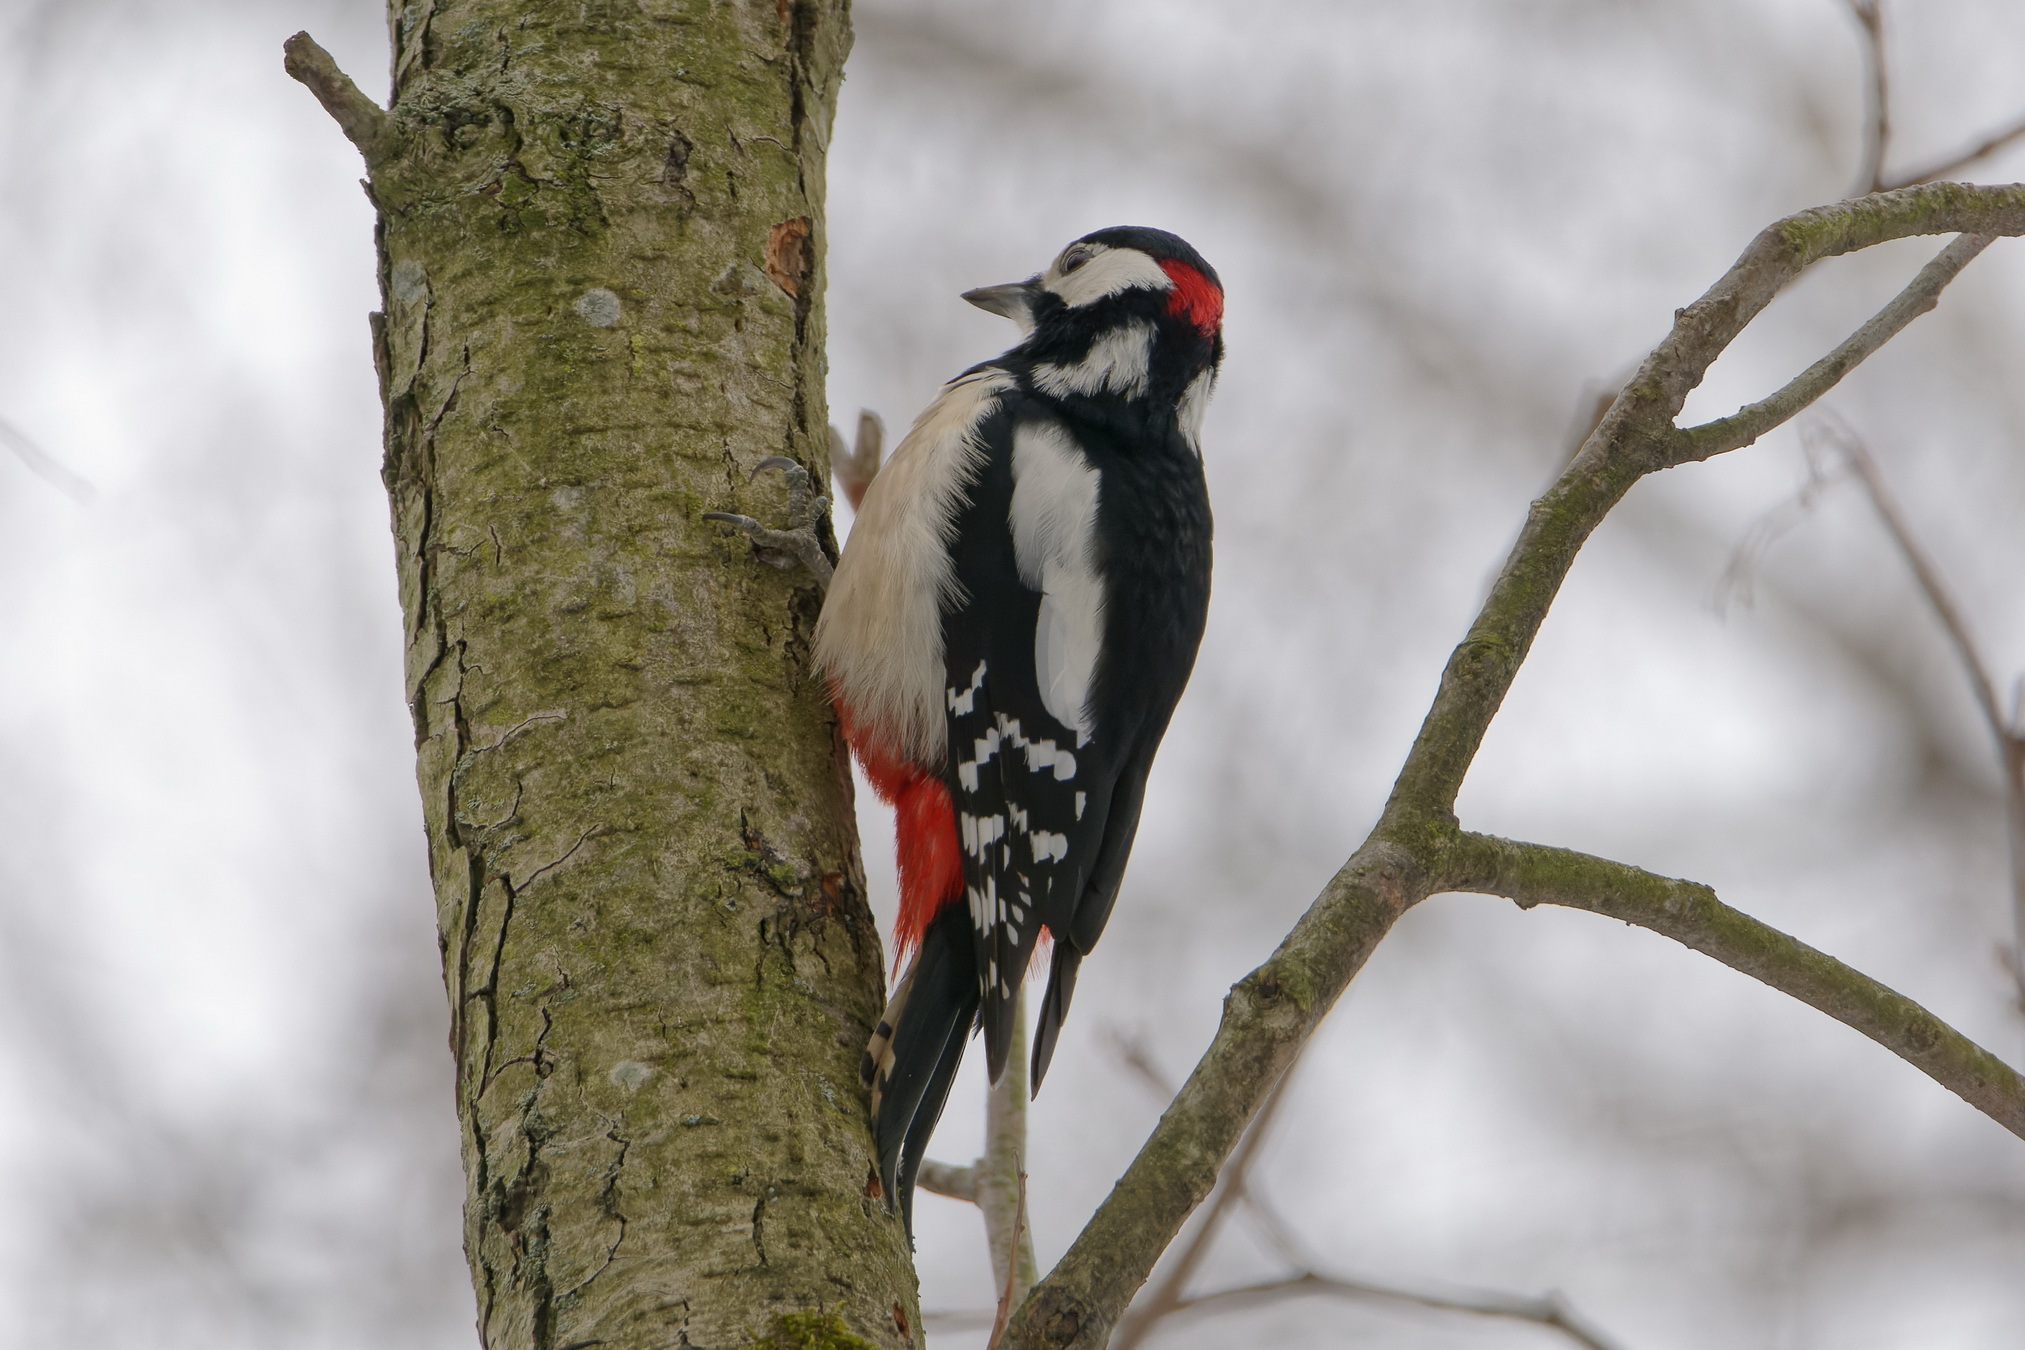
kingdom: Animalia
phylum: Chordata
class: Aves
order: Piciformes
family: Picidae
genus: Dendrocopos
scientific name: Dendrocopos major
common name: Great spotted woodpecker
